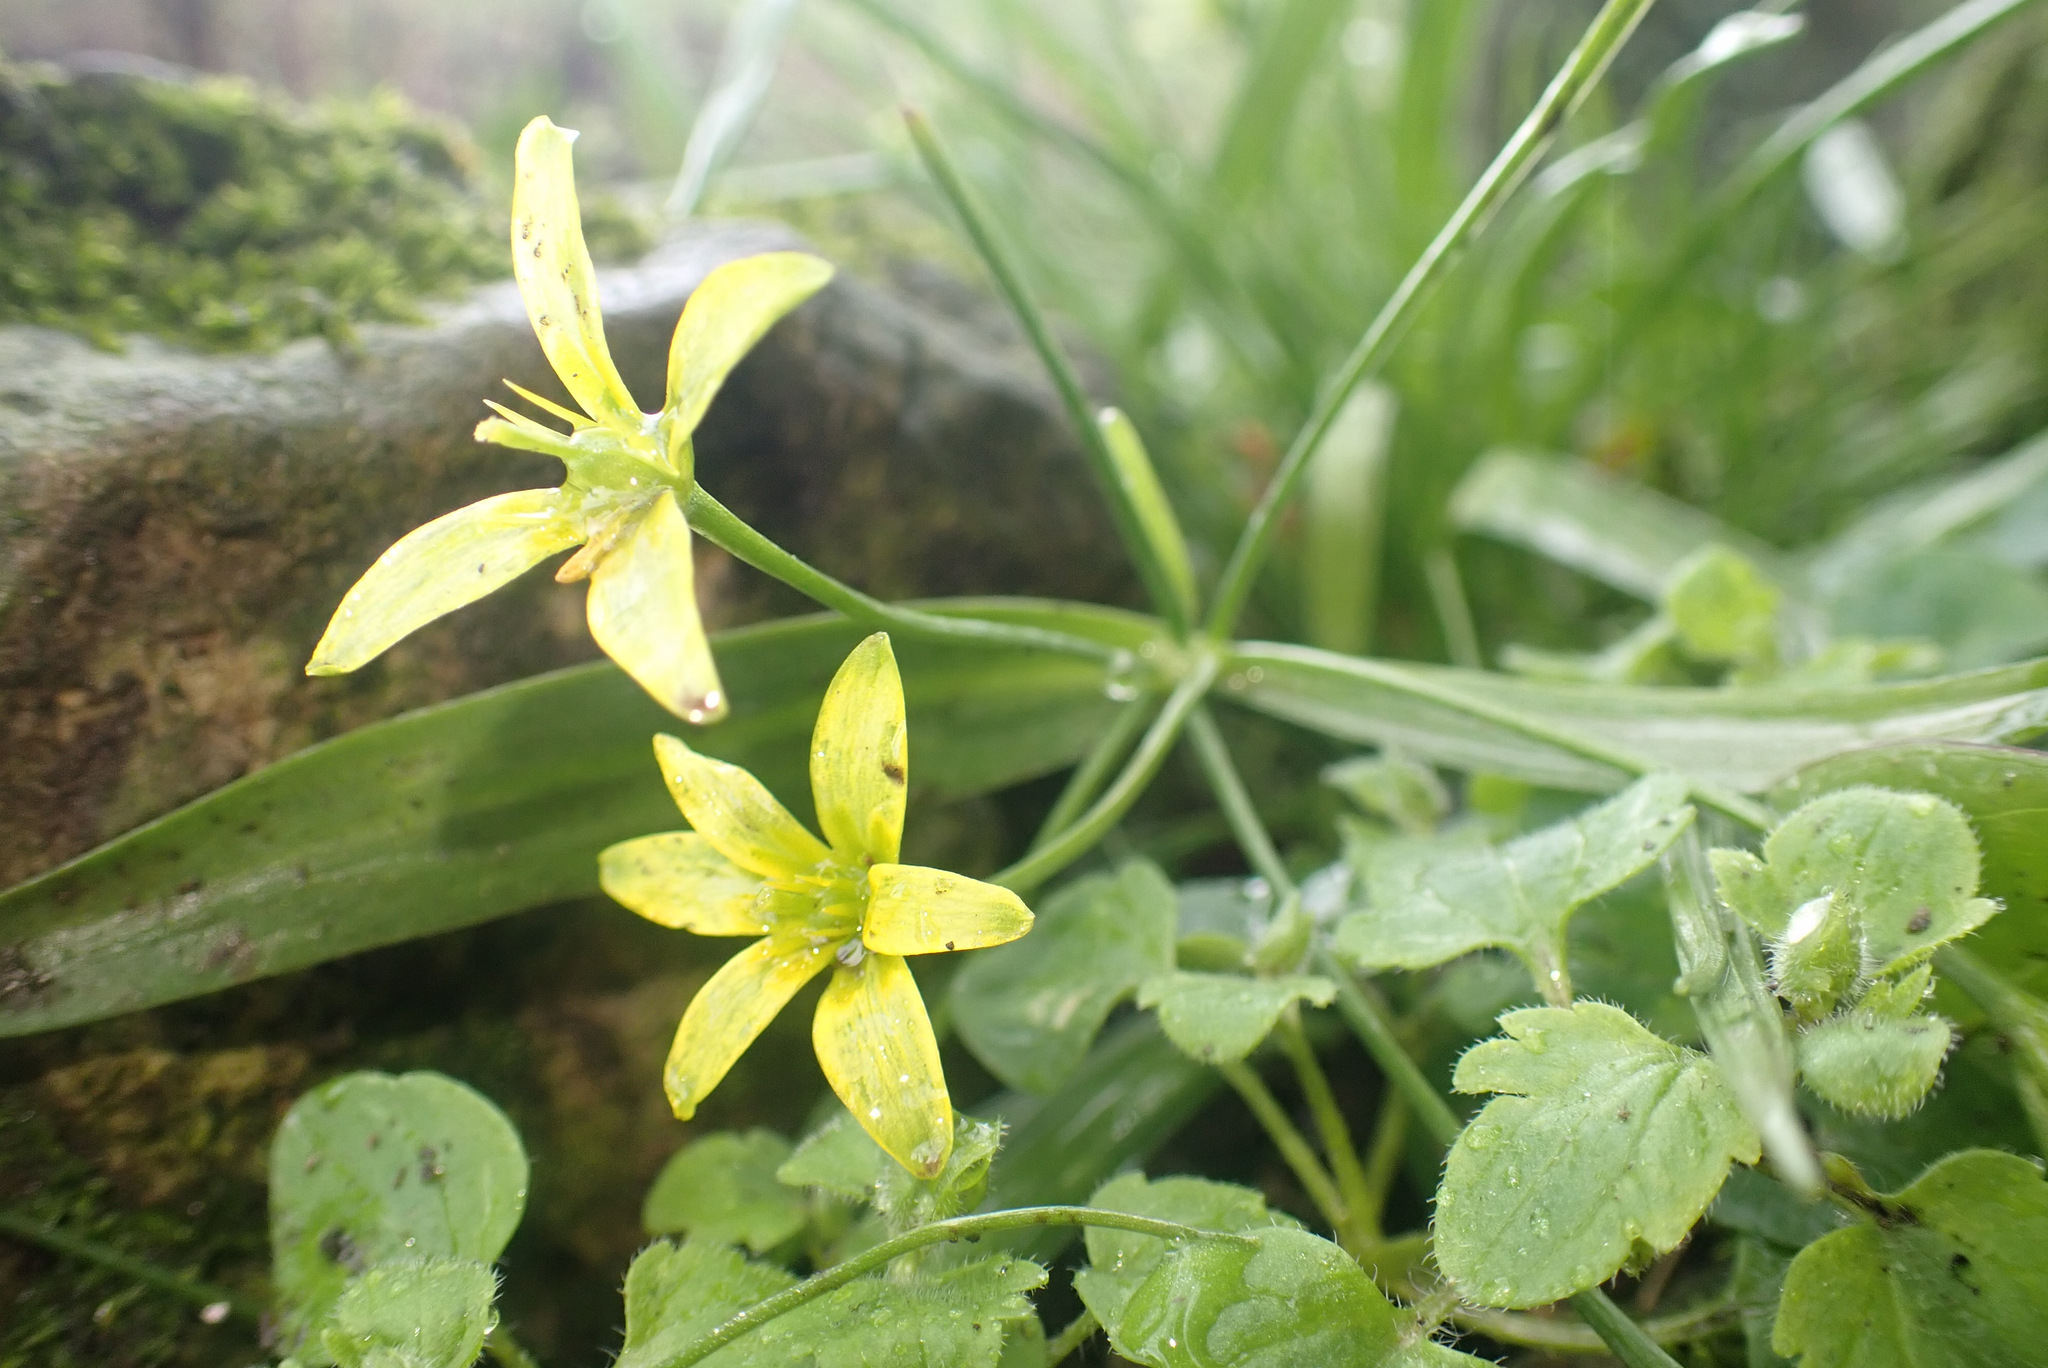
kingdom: Plantae
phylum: Tracheophyta
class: Liliopsida
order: Liliales
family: Liliaceae
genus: Gagea
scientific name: Gagea lutea
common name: Yellow star-of-bethlehem
